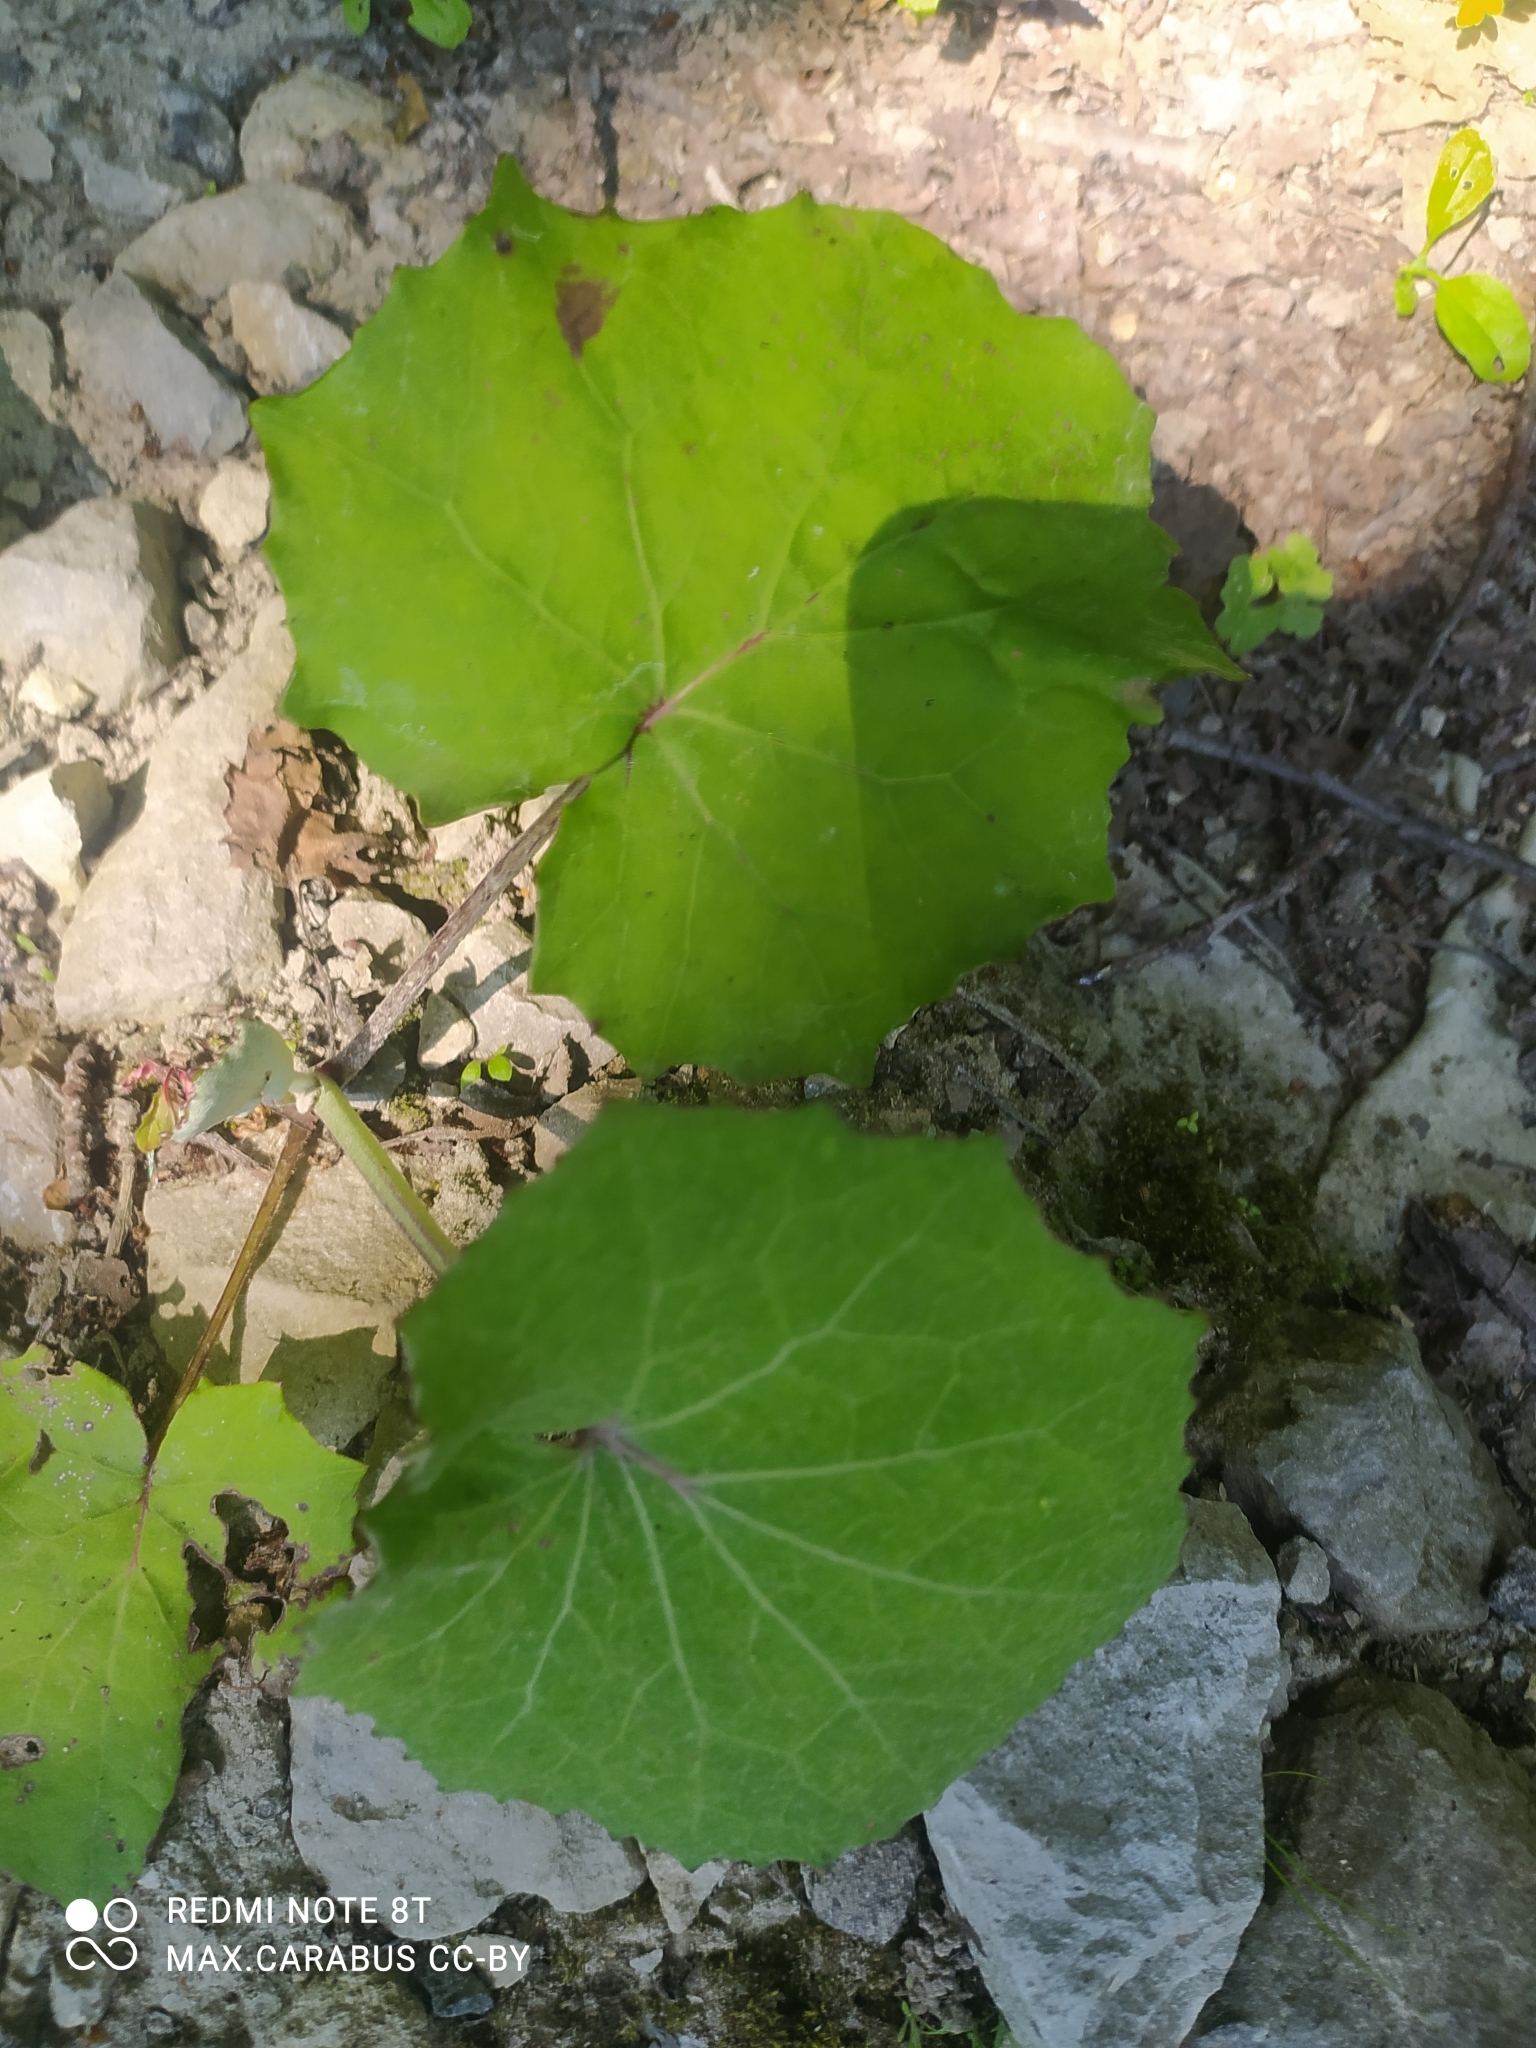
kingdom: Plantae
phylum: Tracheophyta
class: Magnoliopsida
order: Asterales
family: Asteraceae
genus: Tussilago
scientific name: Tussilago farfara
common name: Coltsfoot
